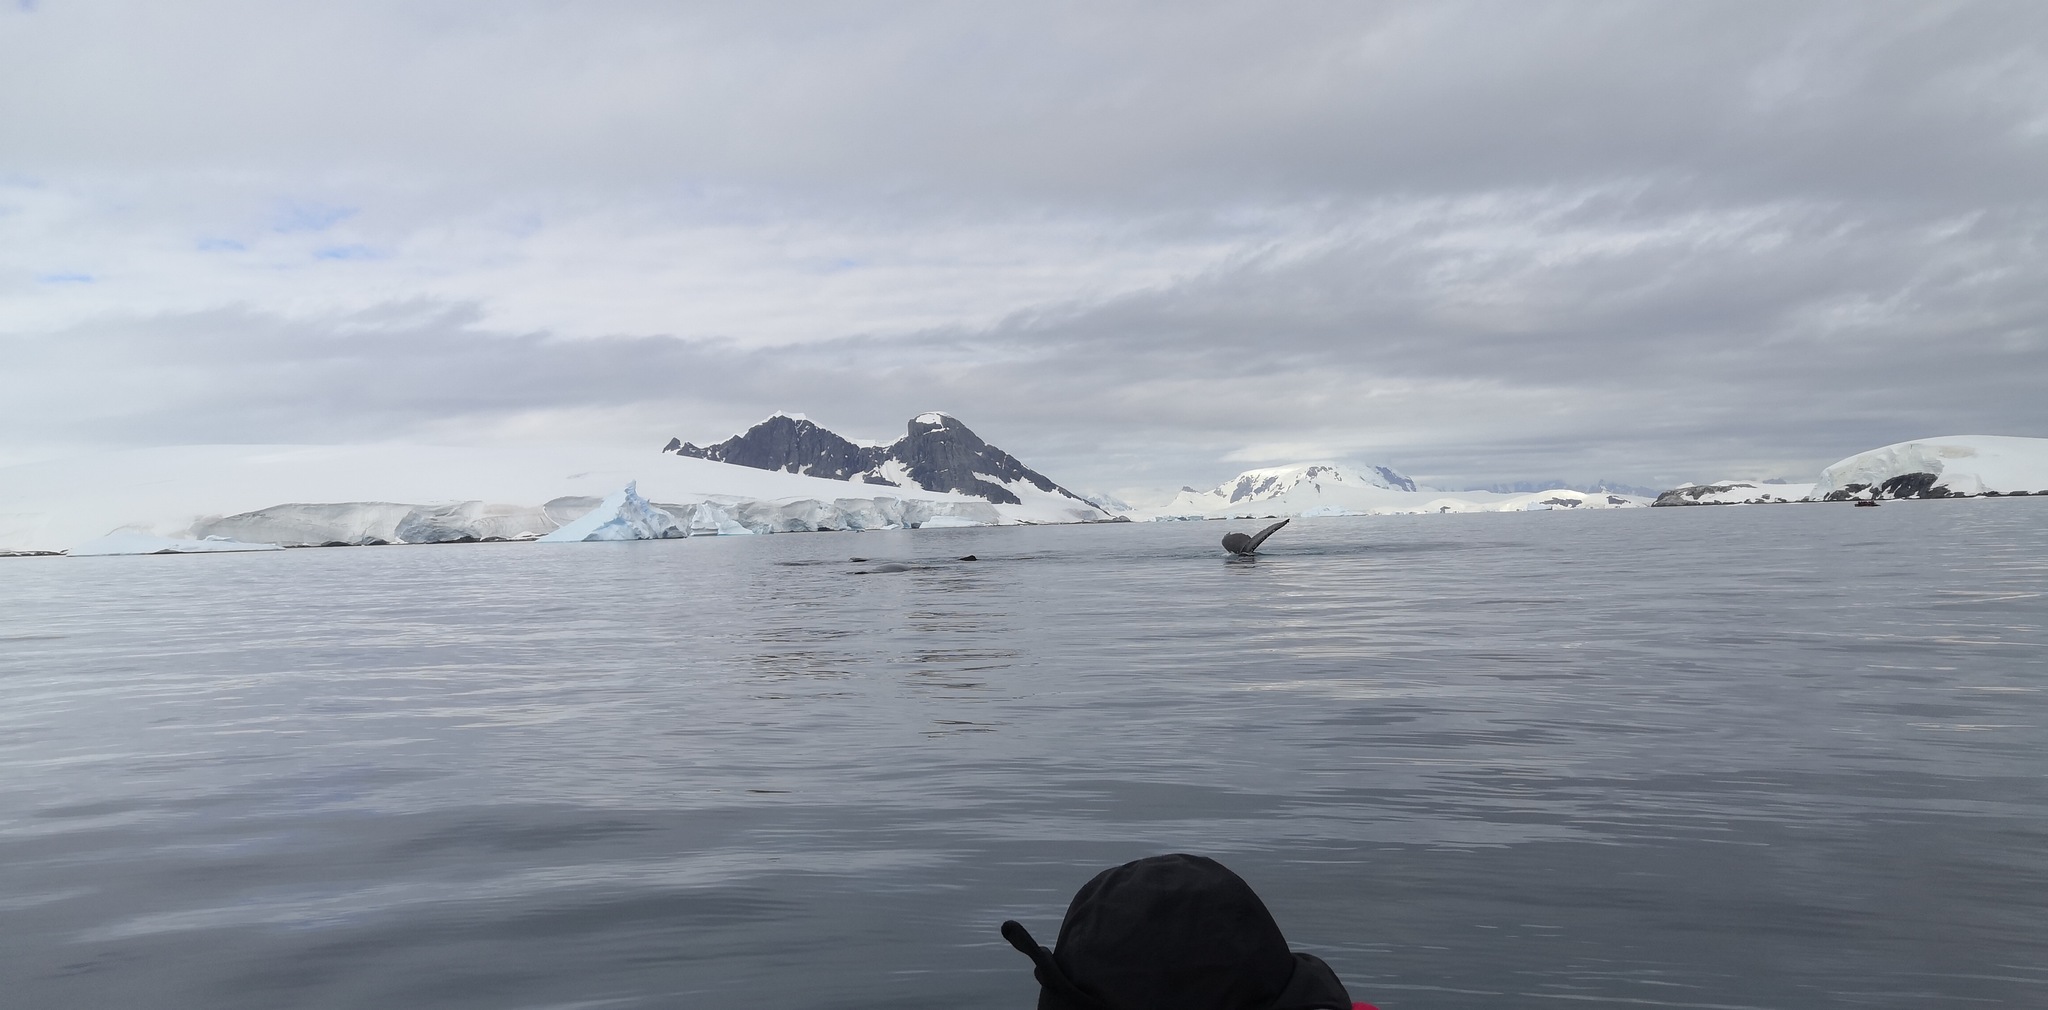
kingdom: Animalia
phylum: Chordata
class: Mammalia
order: Cetacea
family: Balaenopteridae
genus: Megaptera
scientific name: Megaptera novaeangliae
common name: Humpback whale
